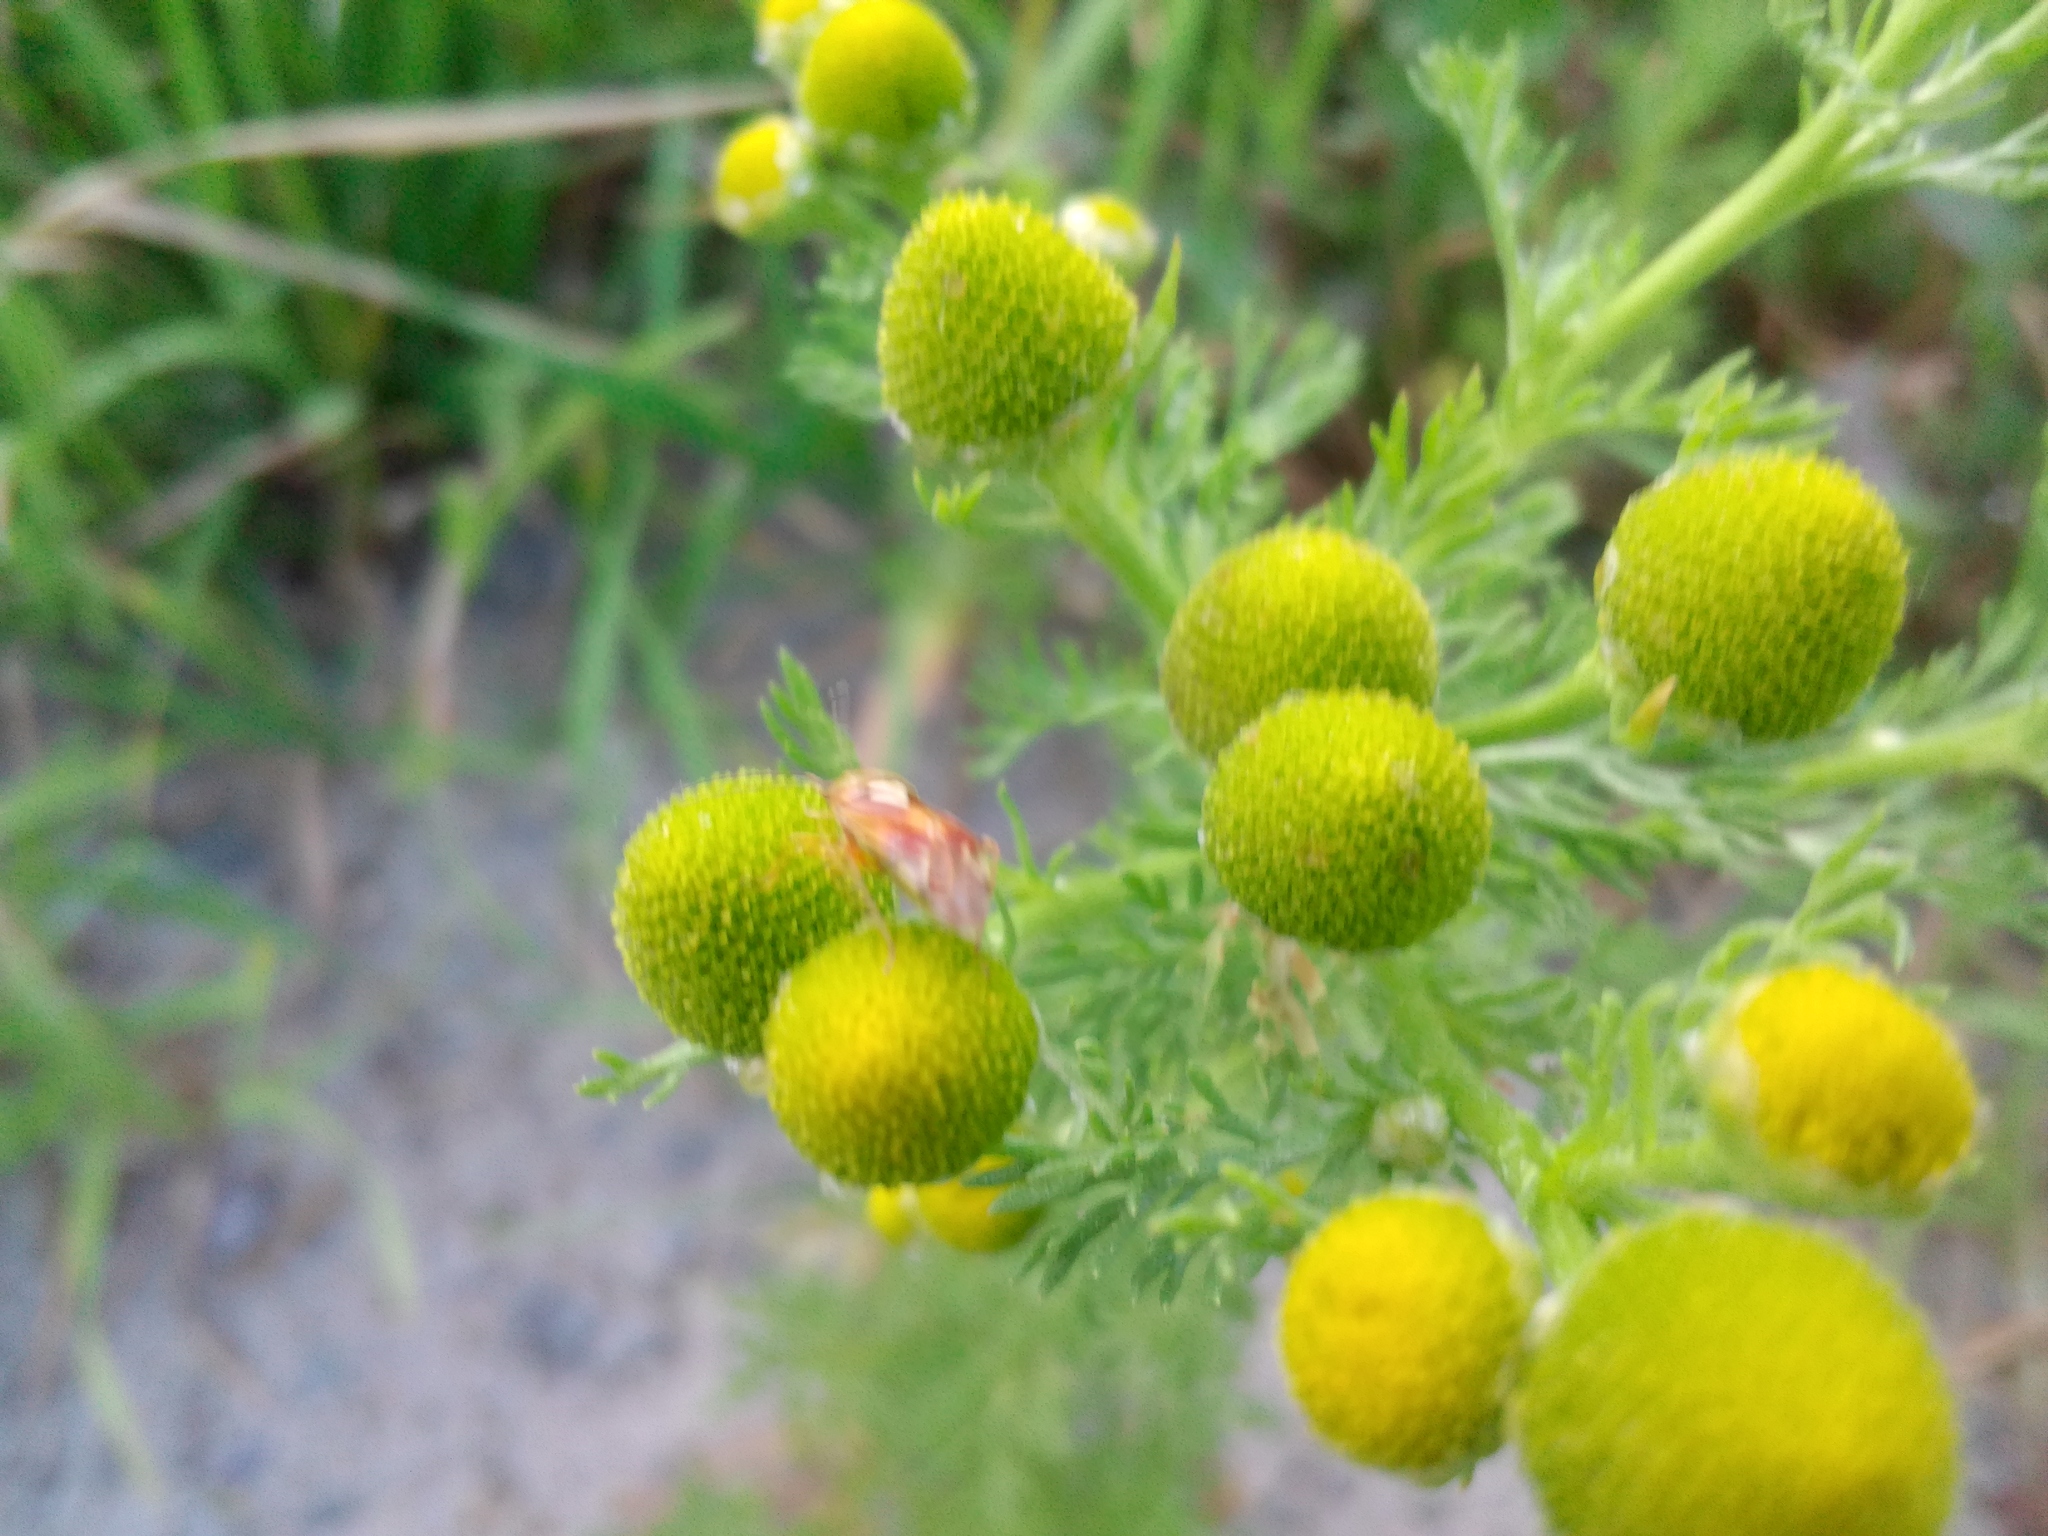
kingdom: Plantae
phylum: Tracheophyta
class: Magnoliopsida
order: Asterales
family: Asteraceae
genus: Matricaria
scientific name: Matricaria discoidea
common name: Disc mayweed
